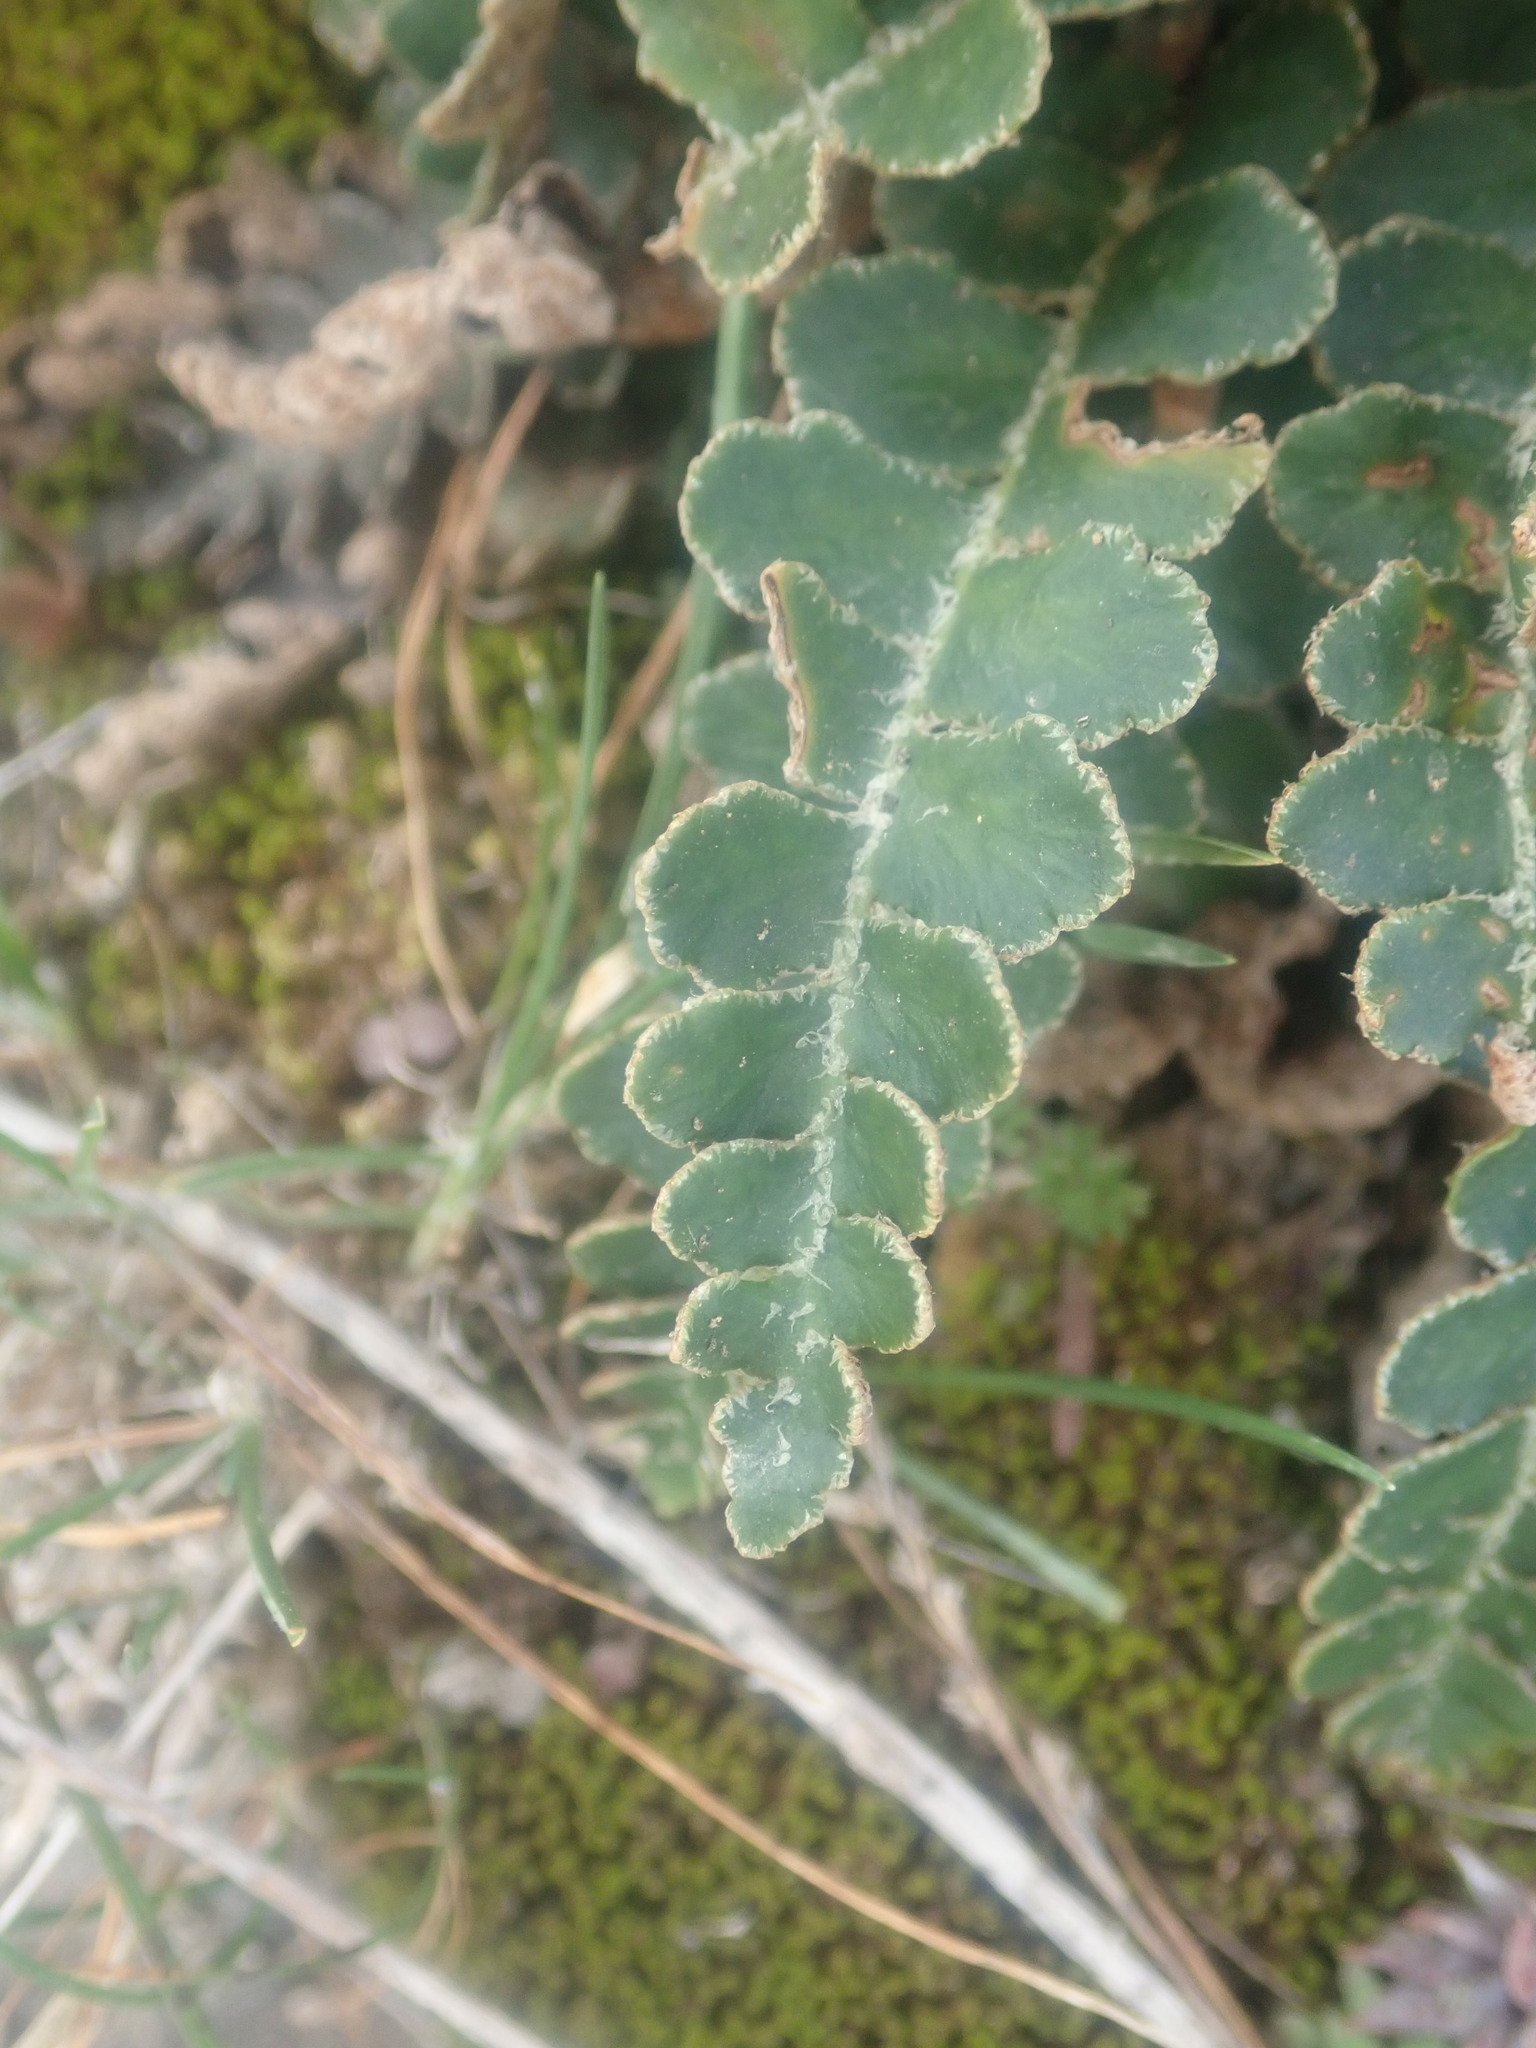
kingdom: Plantae
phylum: Tracheophyta
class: Polypodiopsida
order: Polypodiales
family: Aspleniaceae
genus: Asplenium
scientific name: Asplenium ceterach
